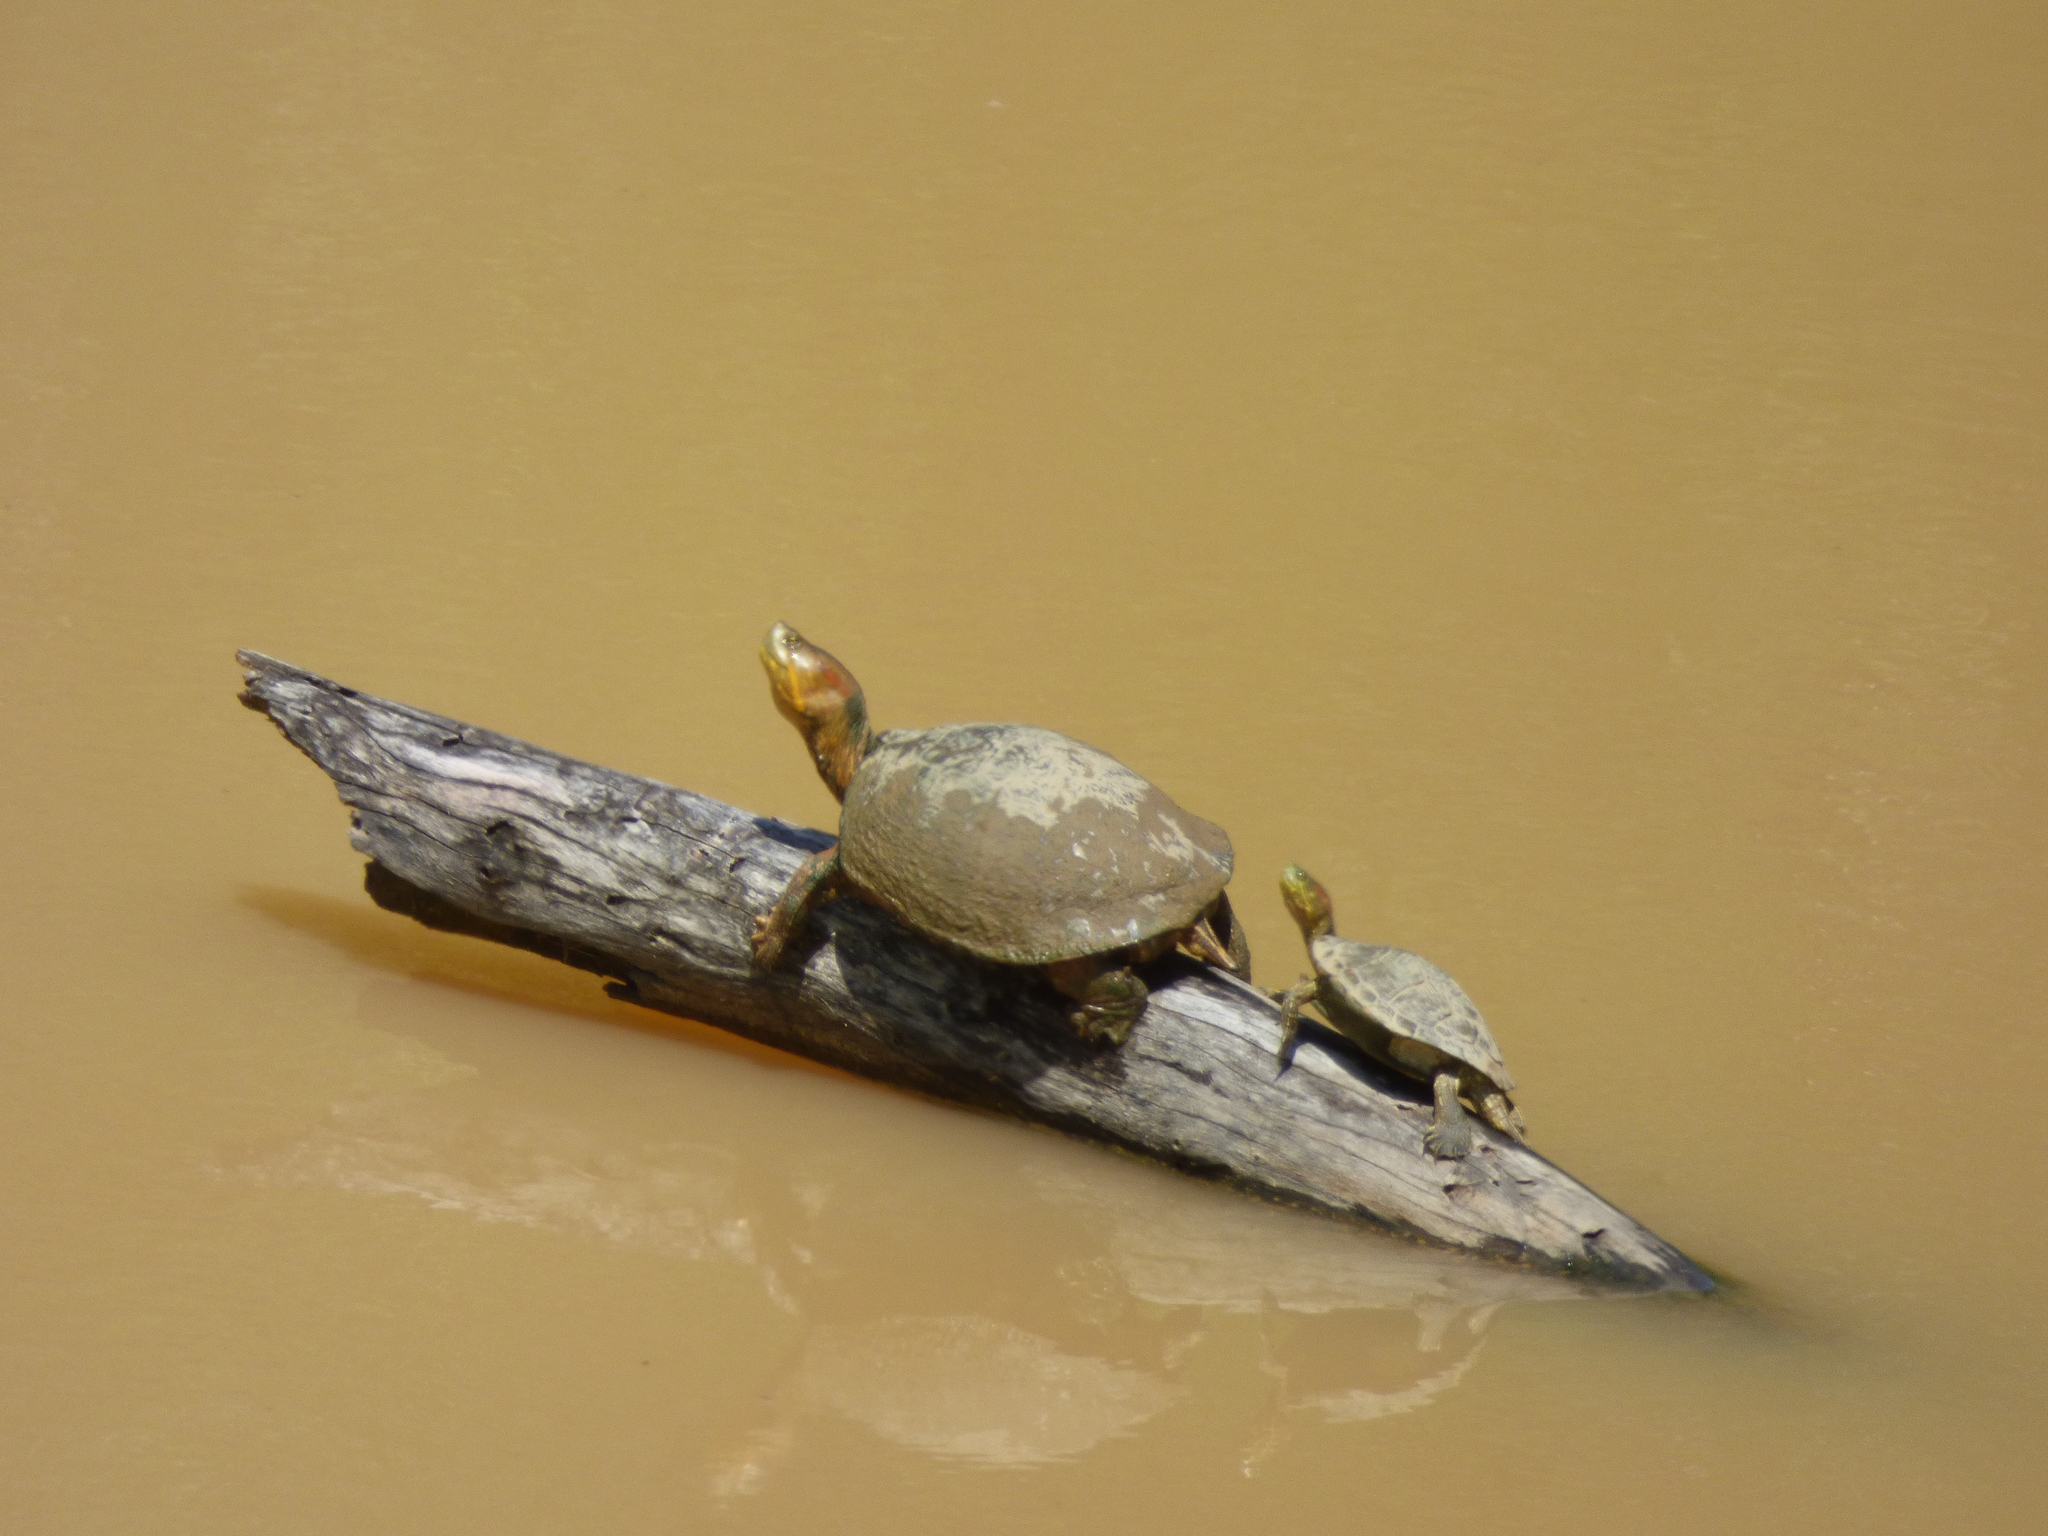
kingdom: Animalia
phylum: Chordata
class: Testudines
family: Emydidae
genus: Trachemys
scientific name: Trachemys callirostris
